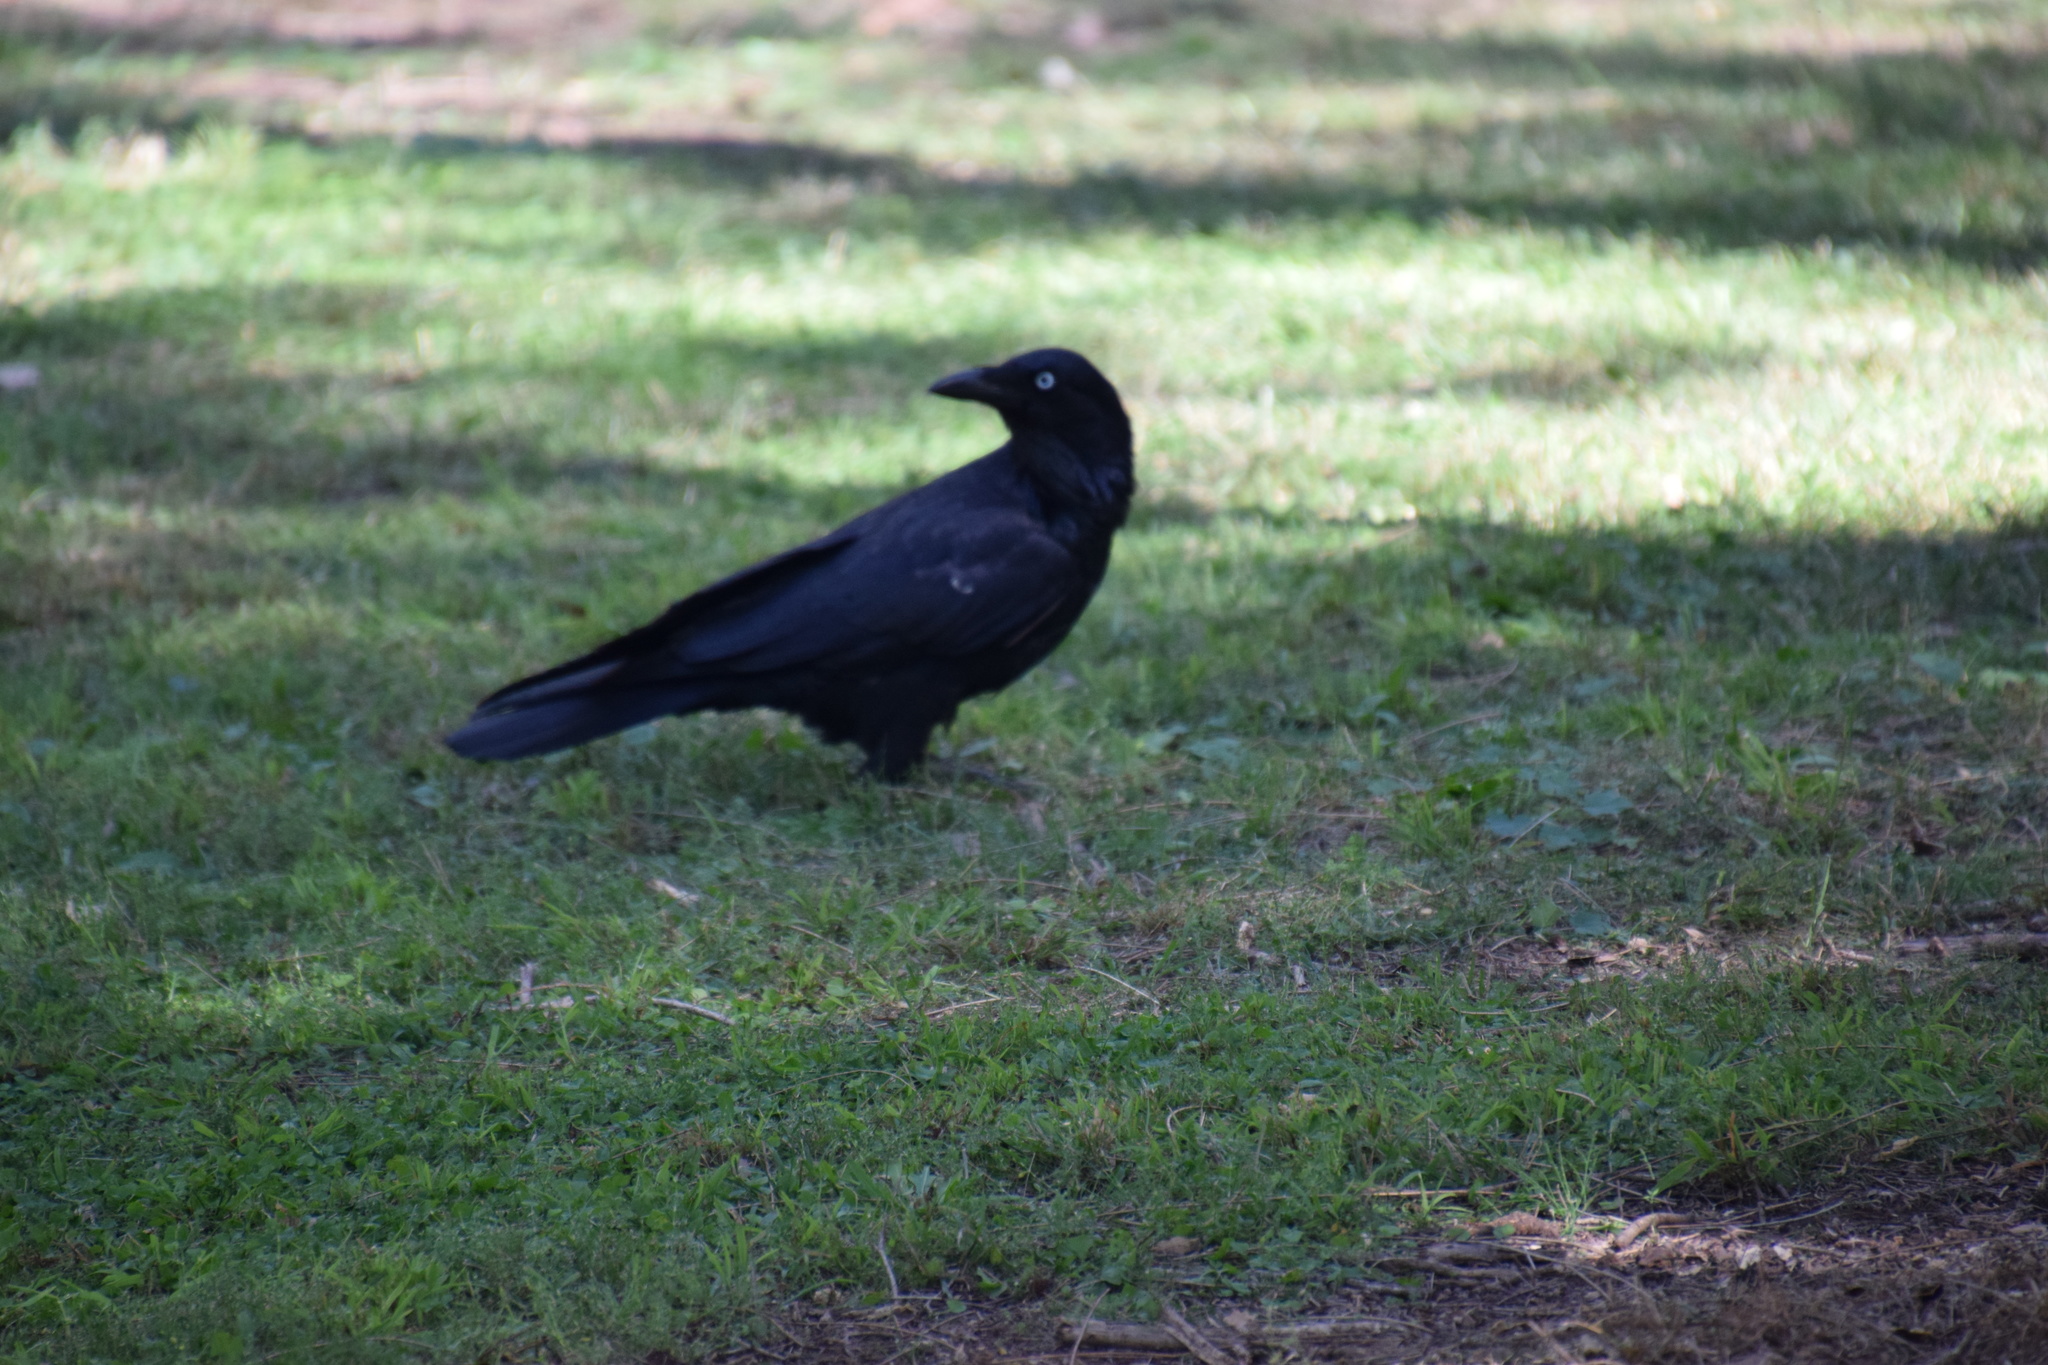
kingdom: Animalia
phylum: Chordata
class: Aves
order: Passeriformes
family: Corvidae
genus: Corvus
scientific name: Corvus coronoides
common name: Australian raven
